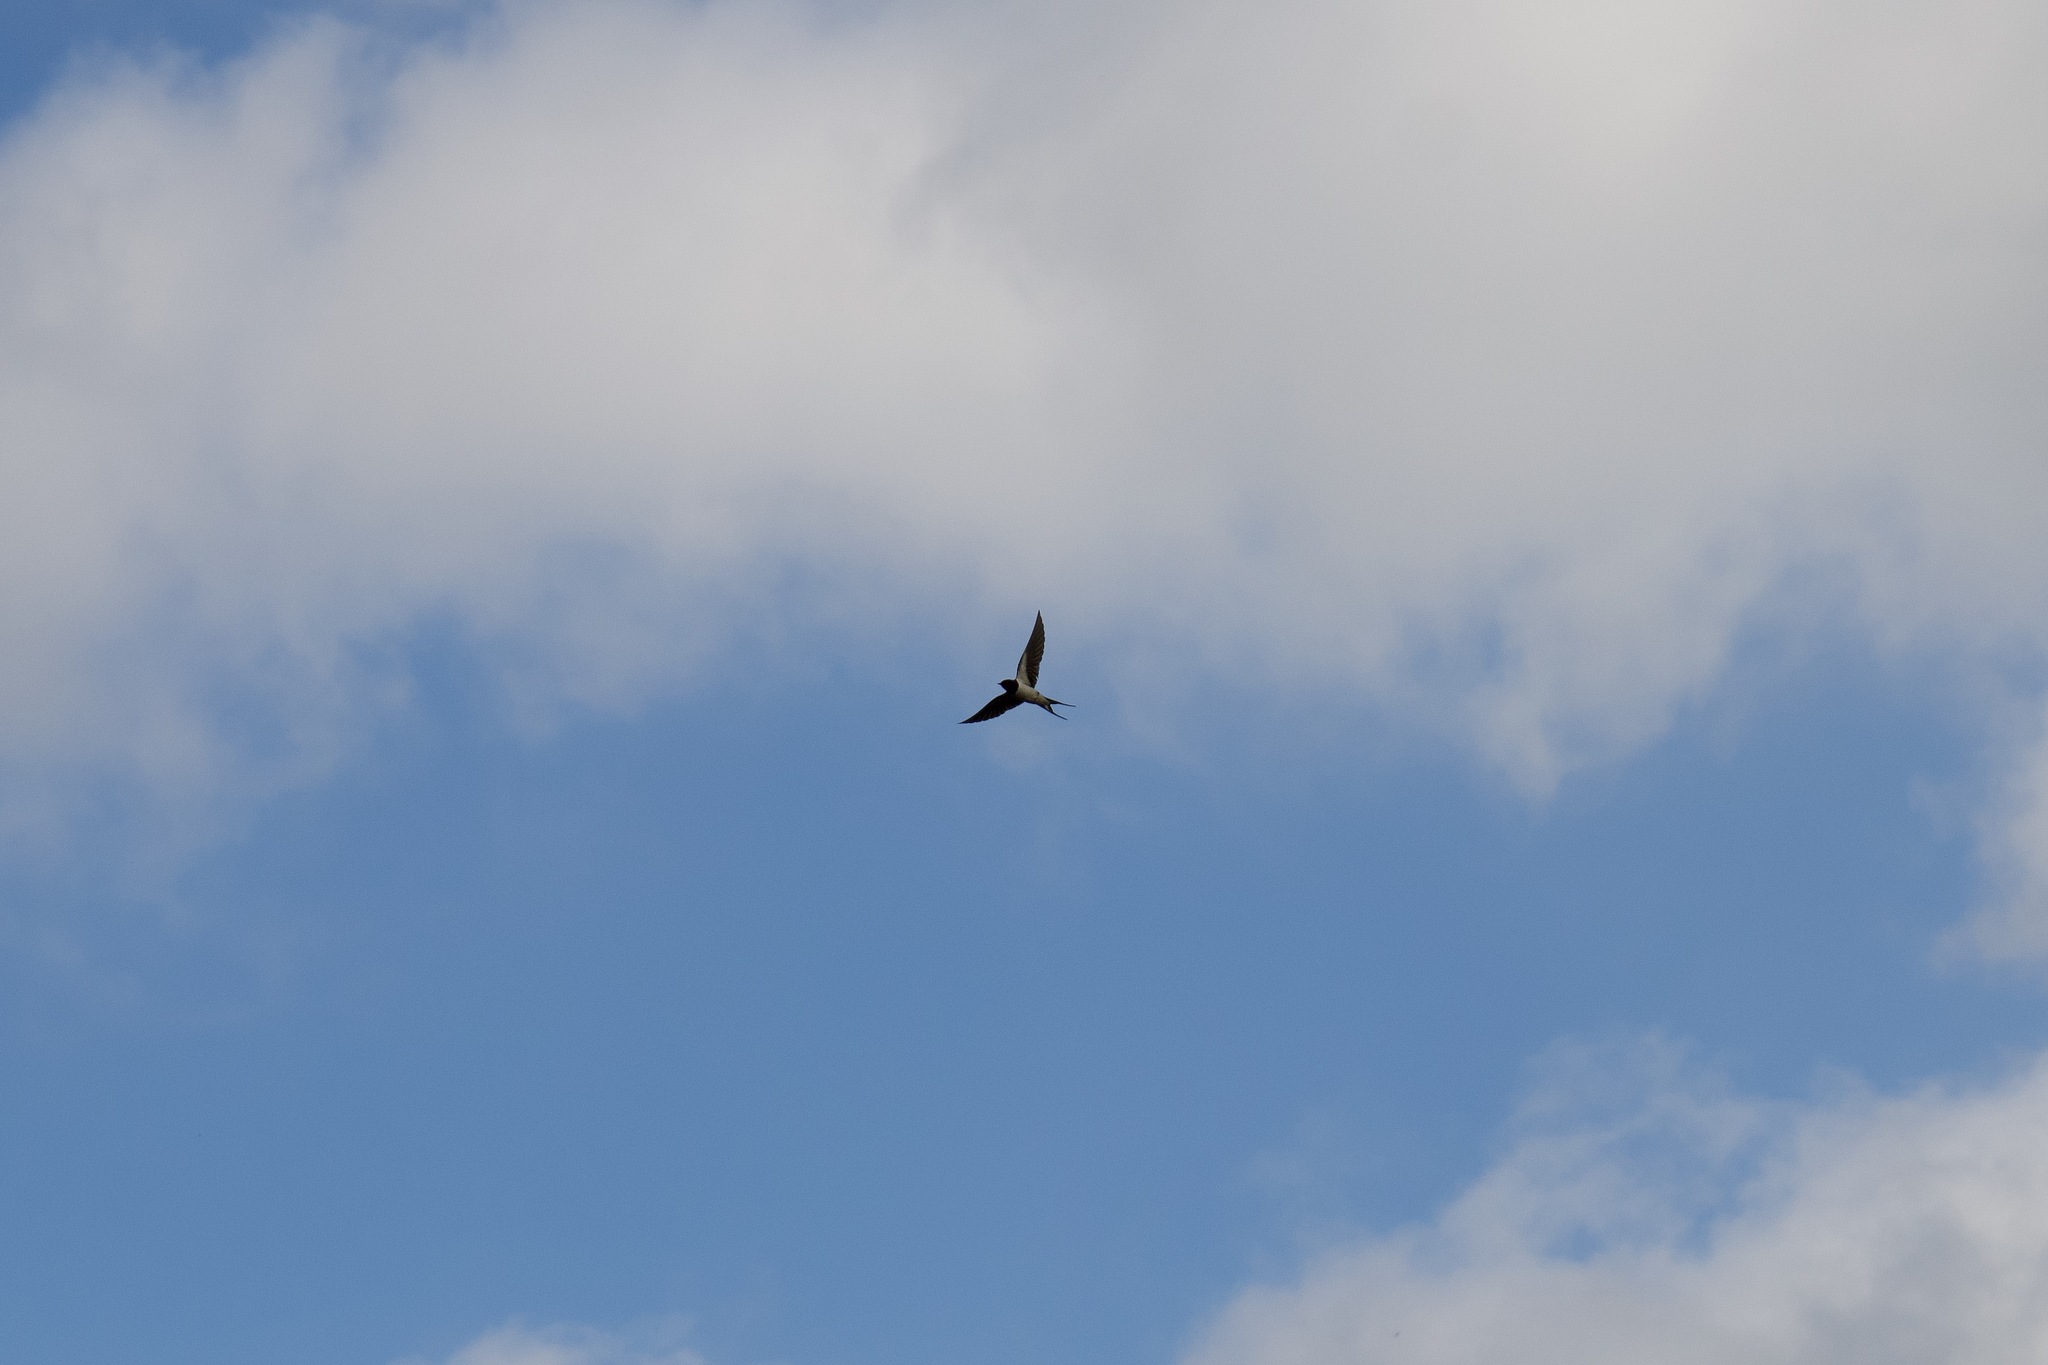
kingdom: Animalia
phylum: Chordata
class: Aves
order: Passeriformes
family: Hirundinidae
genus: Hirundo
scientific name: Hirundo rustica
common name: Barn swallow
